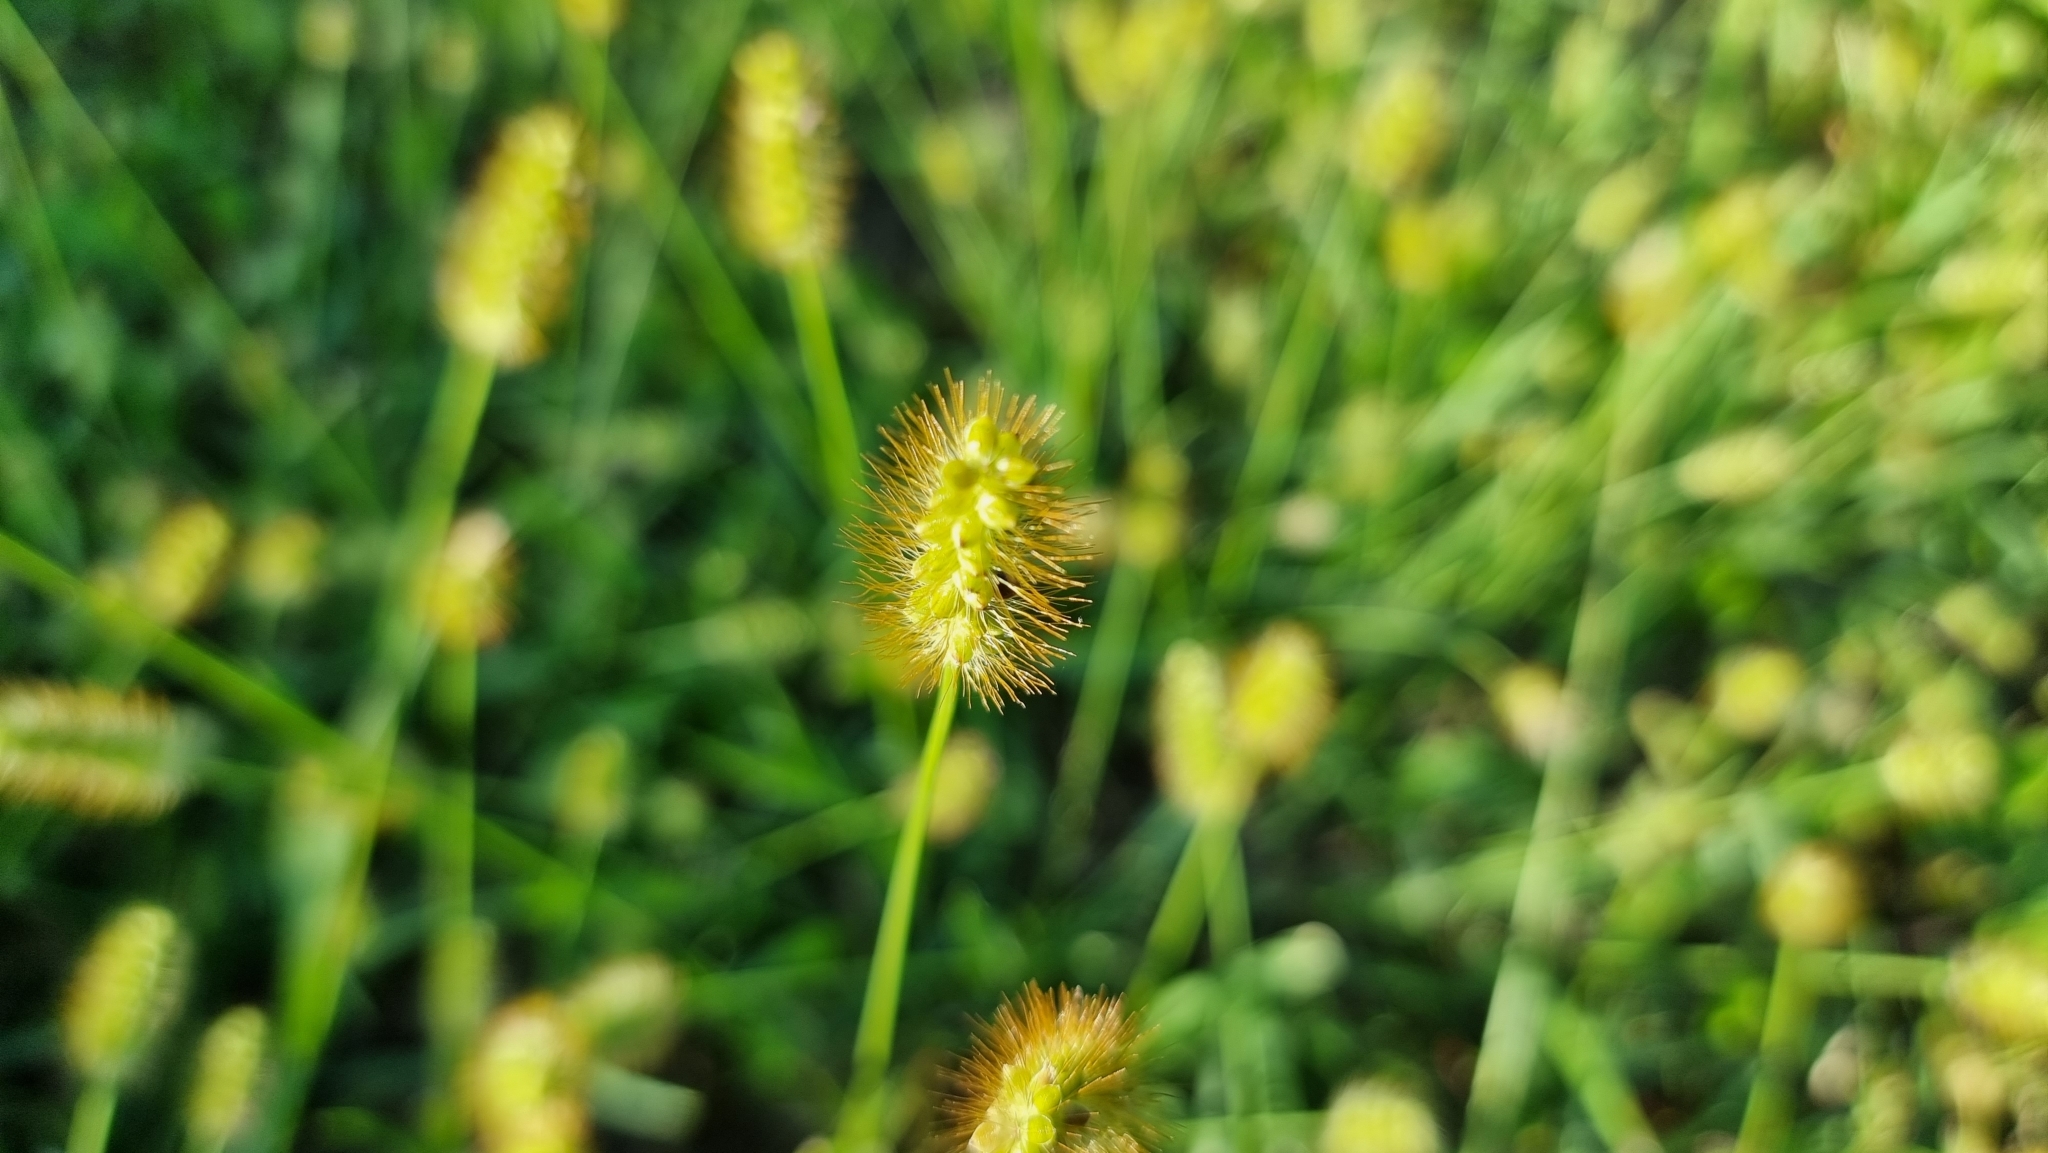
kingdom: Plantae
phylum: Tracheophyta
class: Liliopsida
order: Poales
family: Poaceae
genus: Setaria
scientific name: Setaria pumila
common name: Yellow bristle-grass
